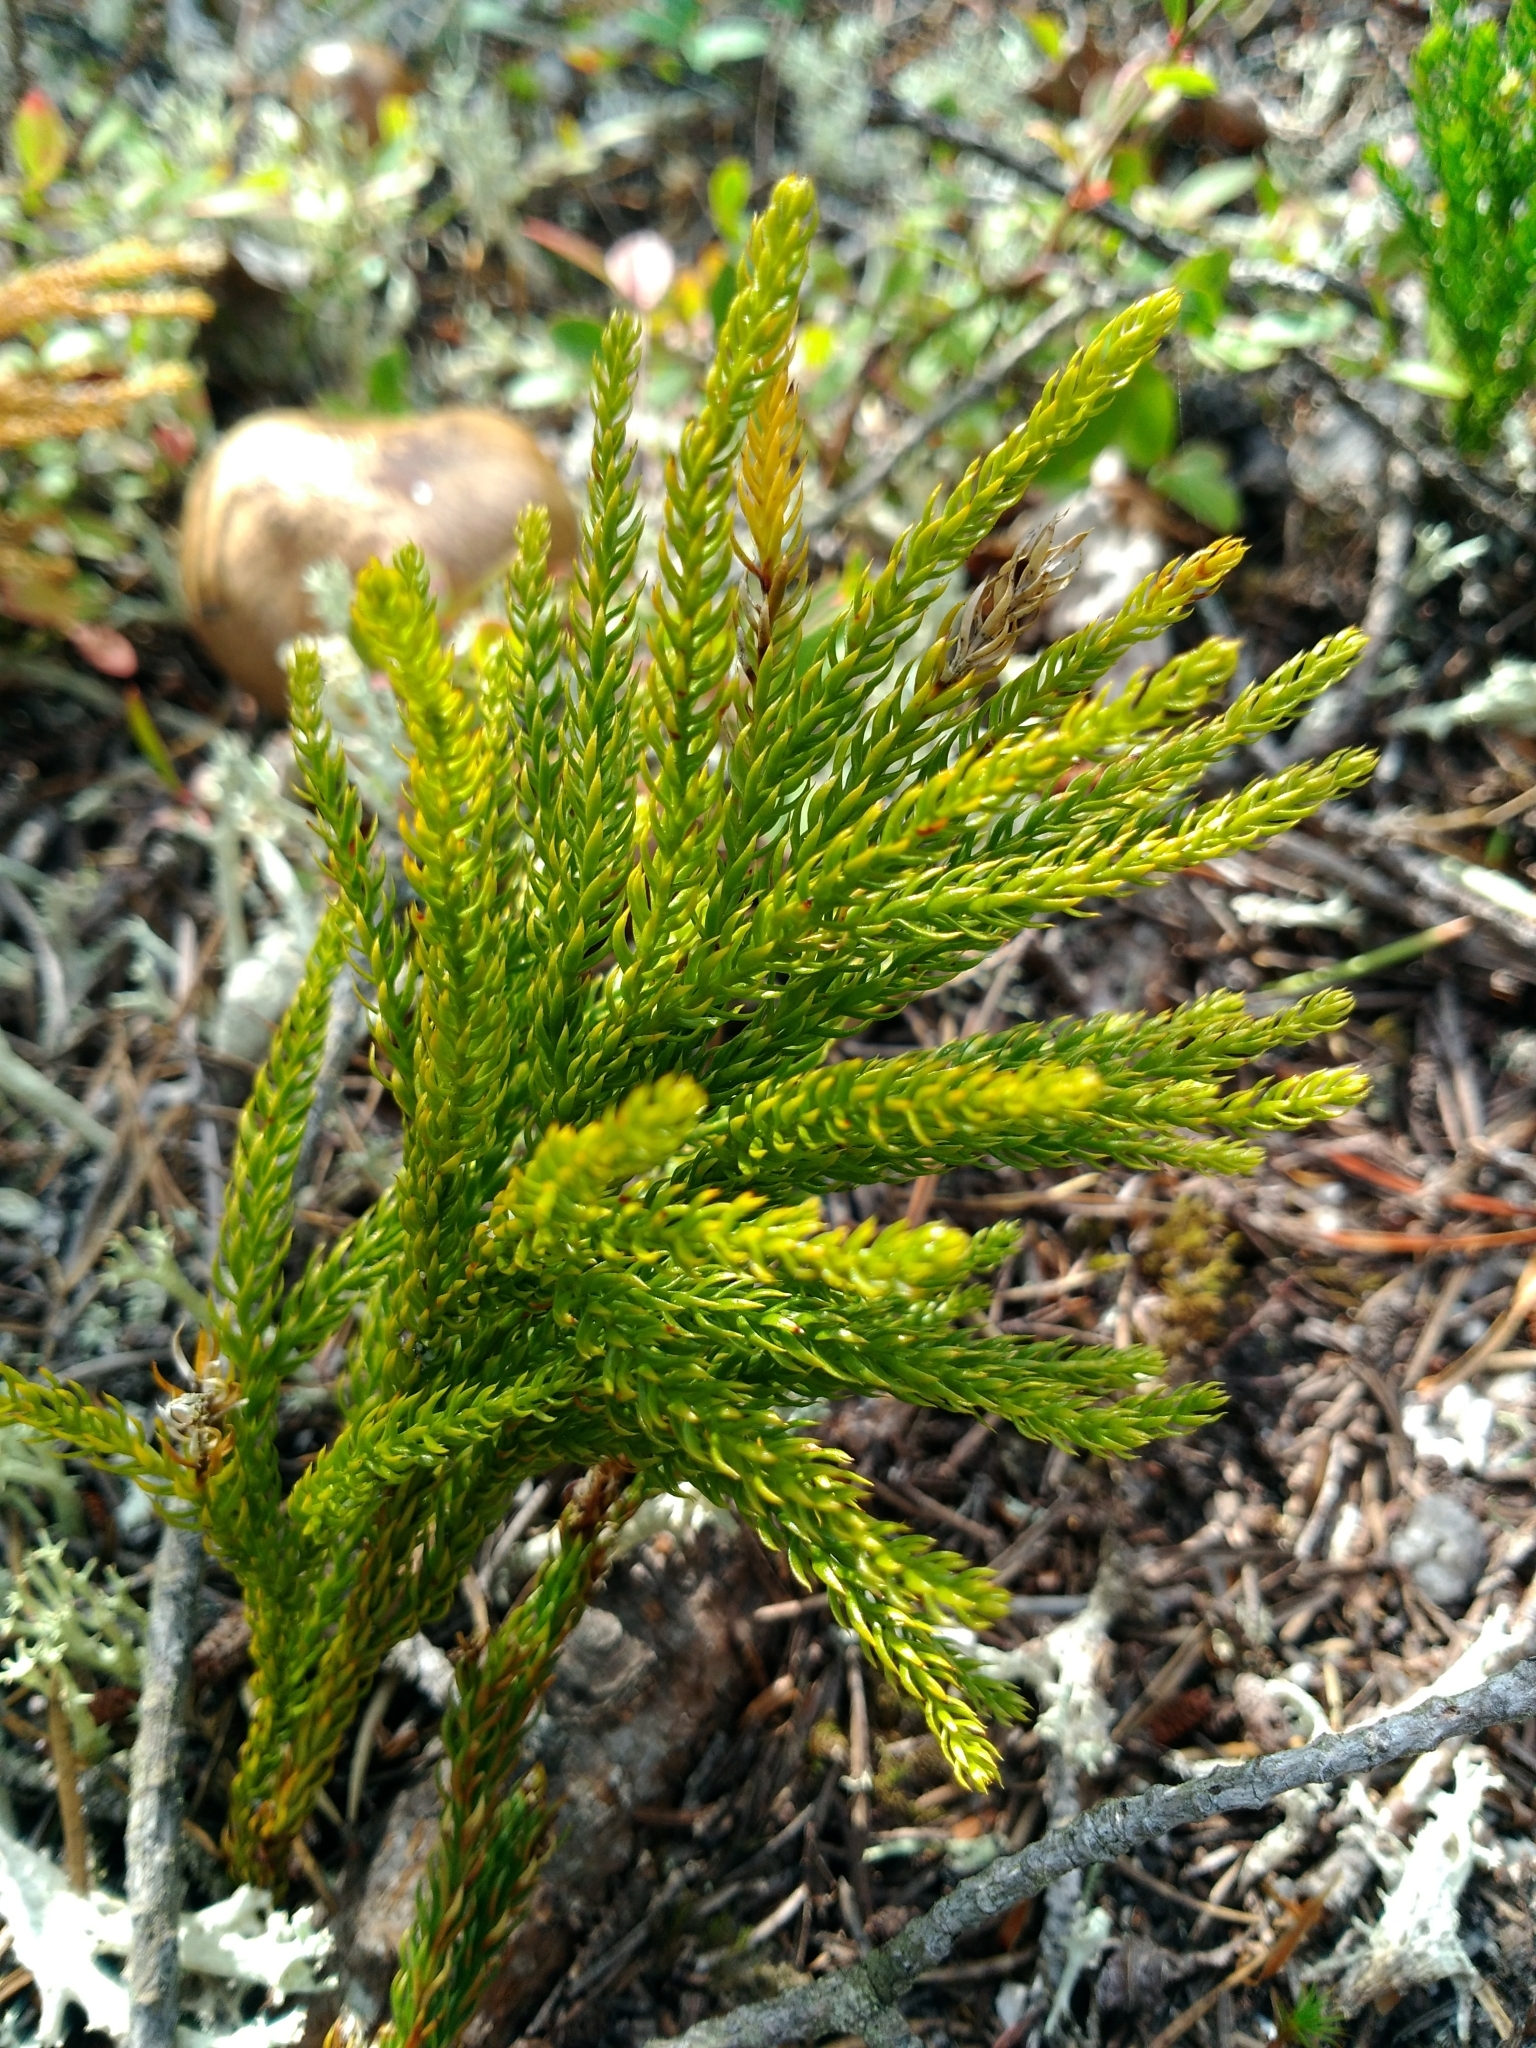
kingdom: Plantae
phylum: Tracheophyta
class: Lycopodiopsida
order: Lycopodiales
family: Lycopodiaceae
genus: Dendrolycopodium
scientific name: Dendrolycopodium hickeyi
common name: Hickey's clubmoss
